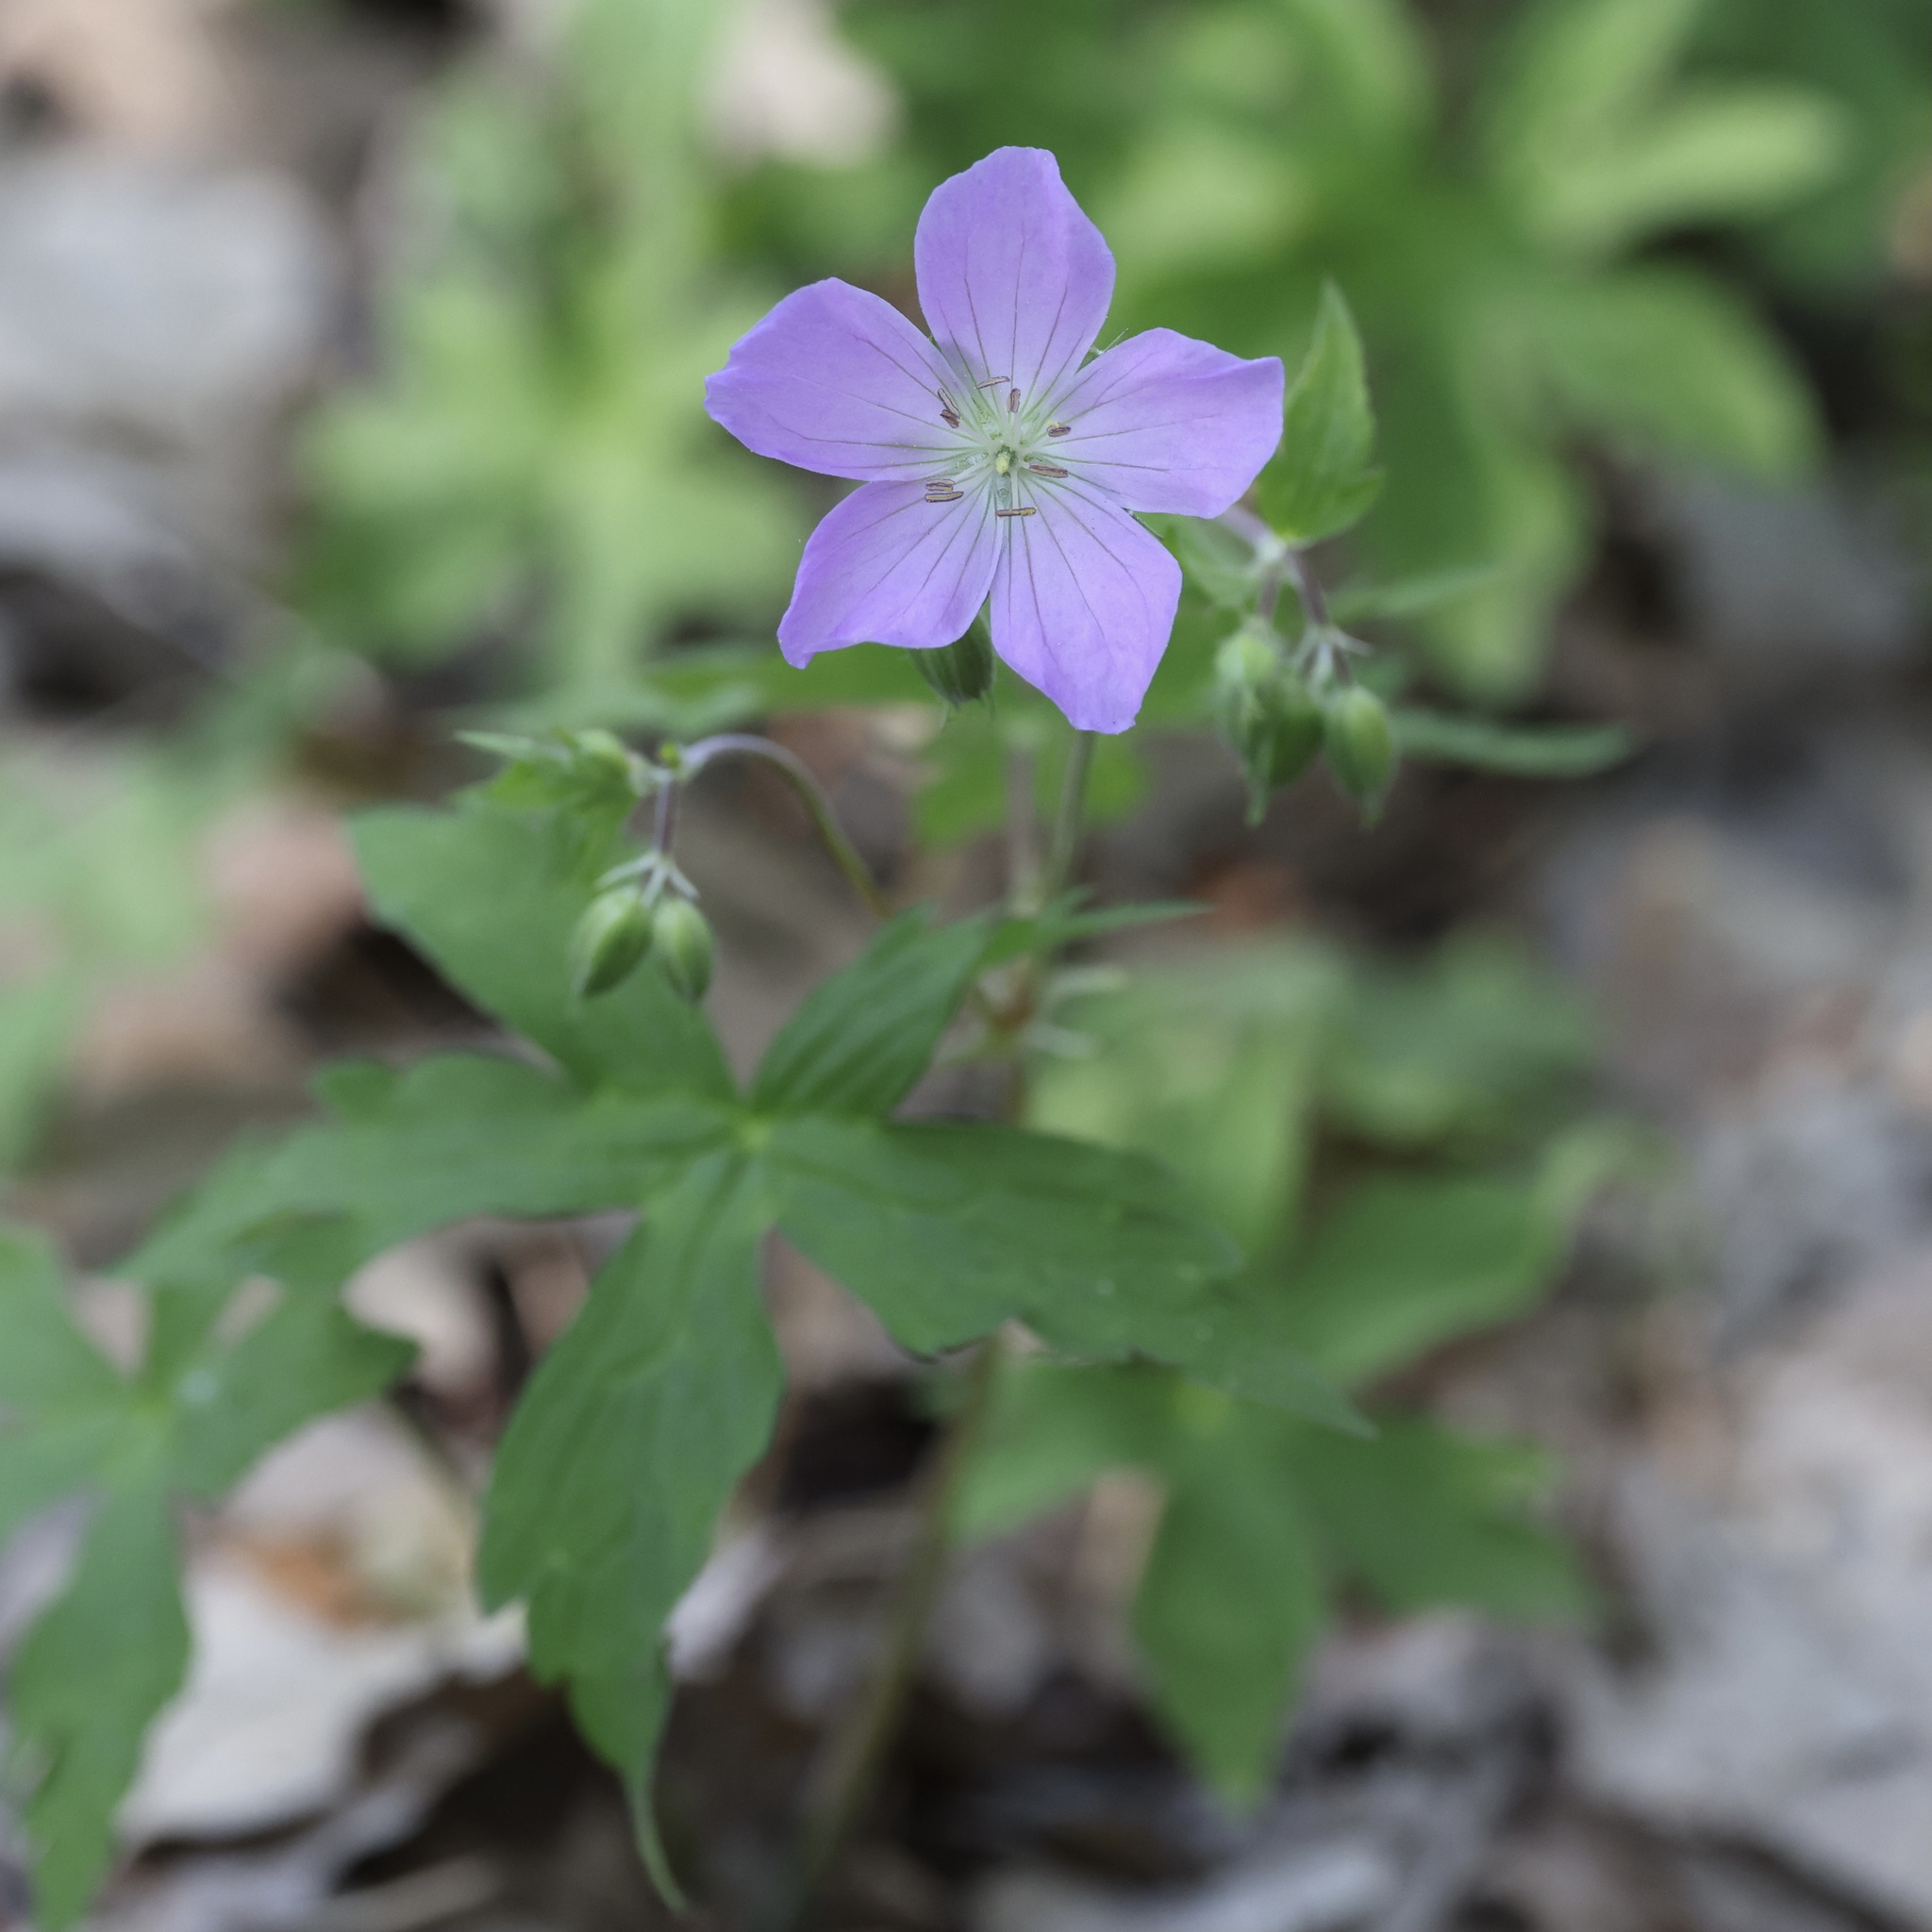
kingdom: Plantae
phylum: Tracheophyta
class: Magnoliopsida
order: Geraniales
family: Geraniaceae
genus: Geranium
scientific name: Geranium maculatum
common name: Spotted geranium
